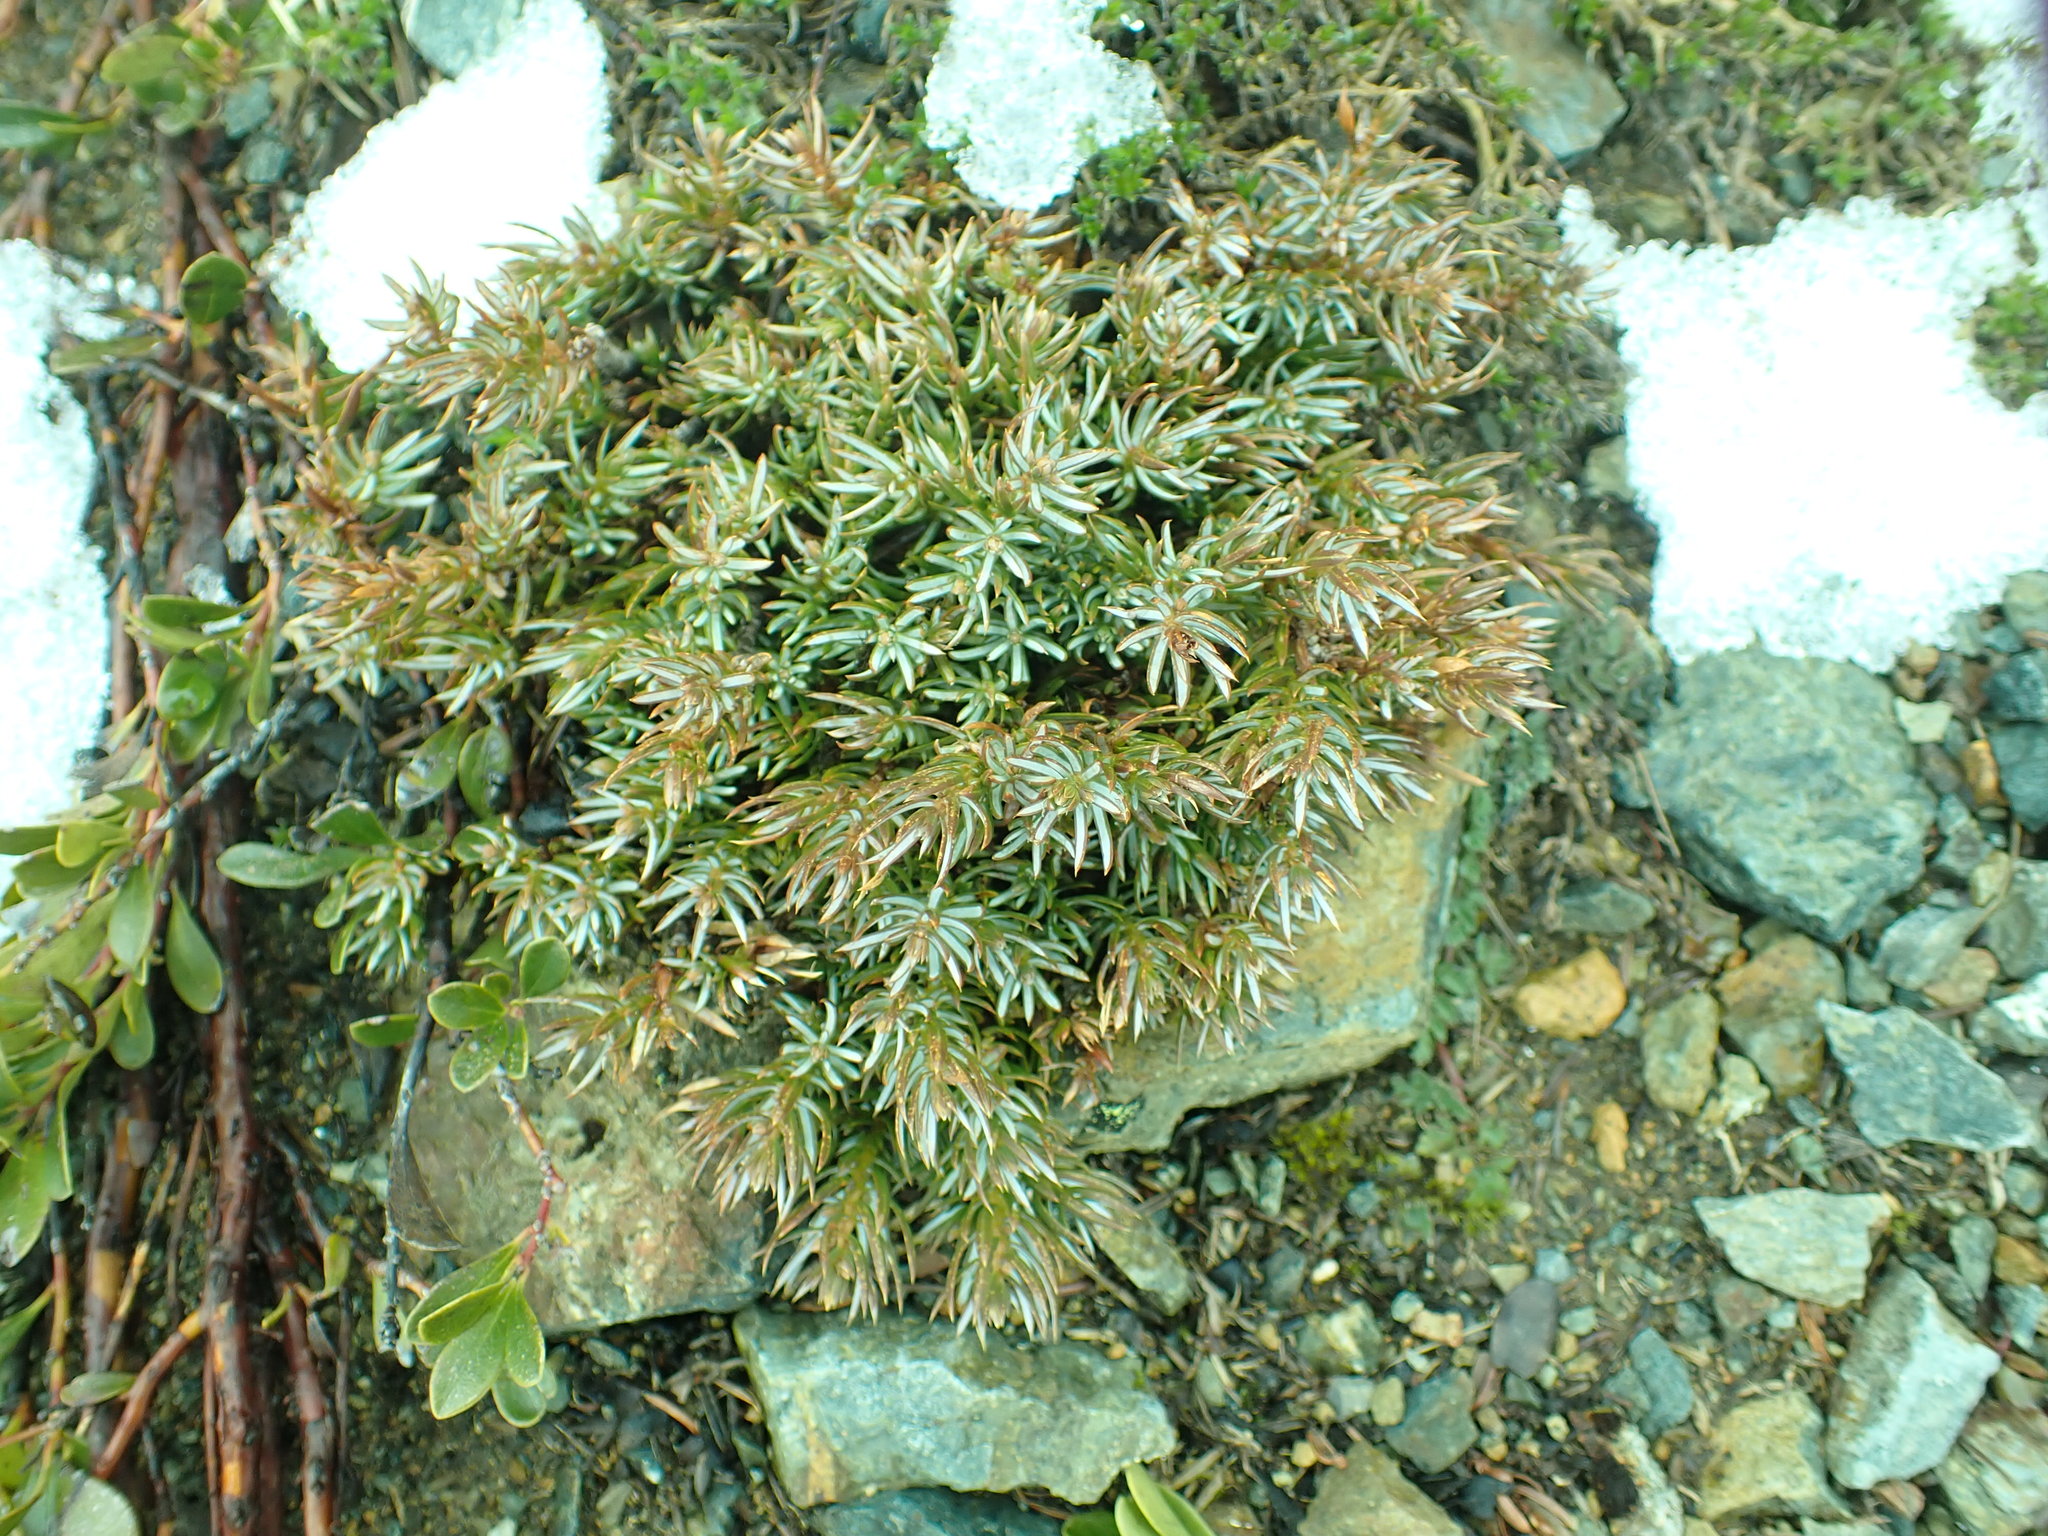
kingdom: Plantae
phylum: Tracheophyta
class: Pinopsida
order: Pinales
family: Cupressaceae
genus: Juniperus
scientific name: Juniperus communis
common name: Common juniper
